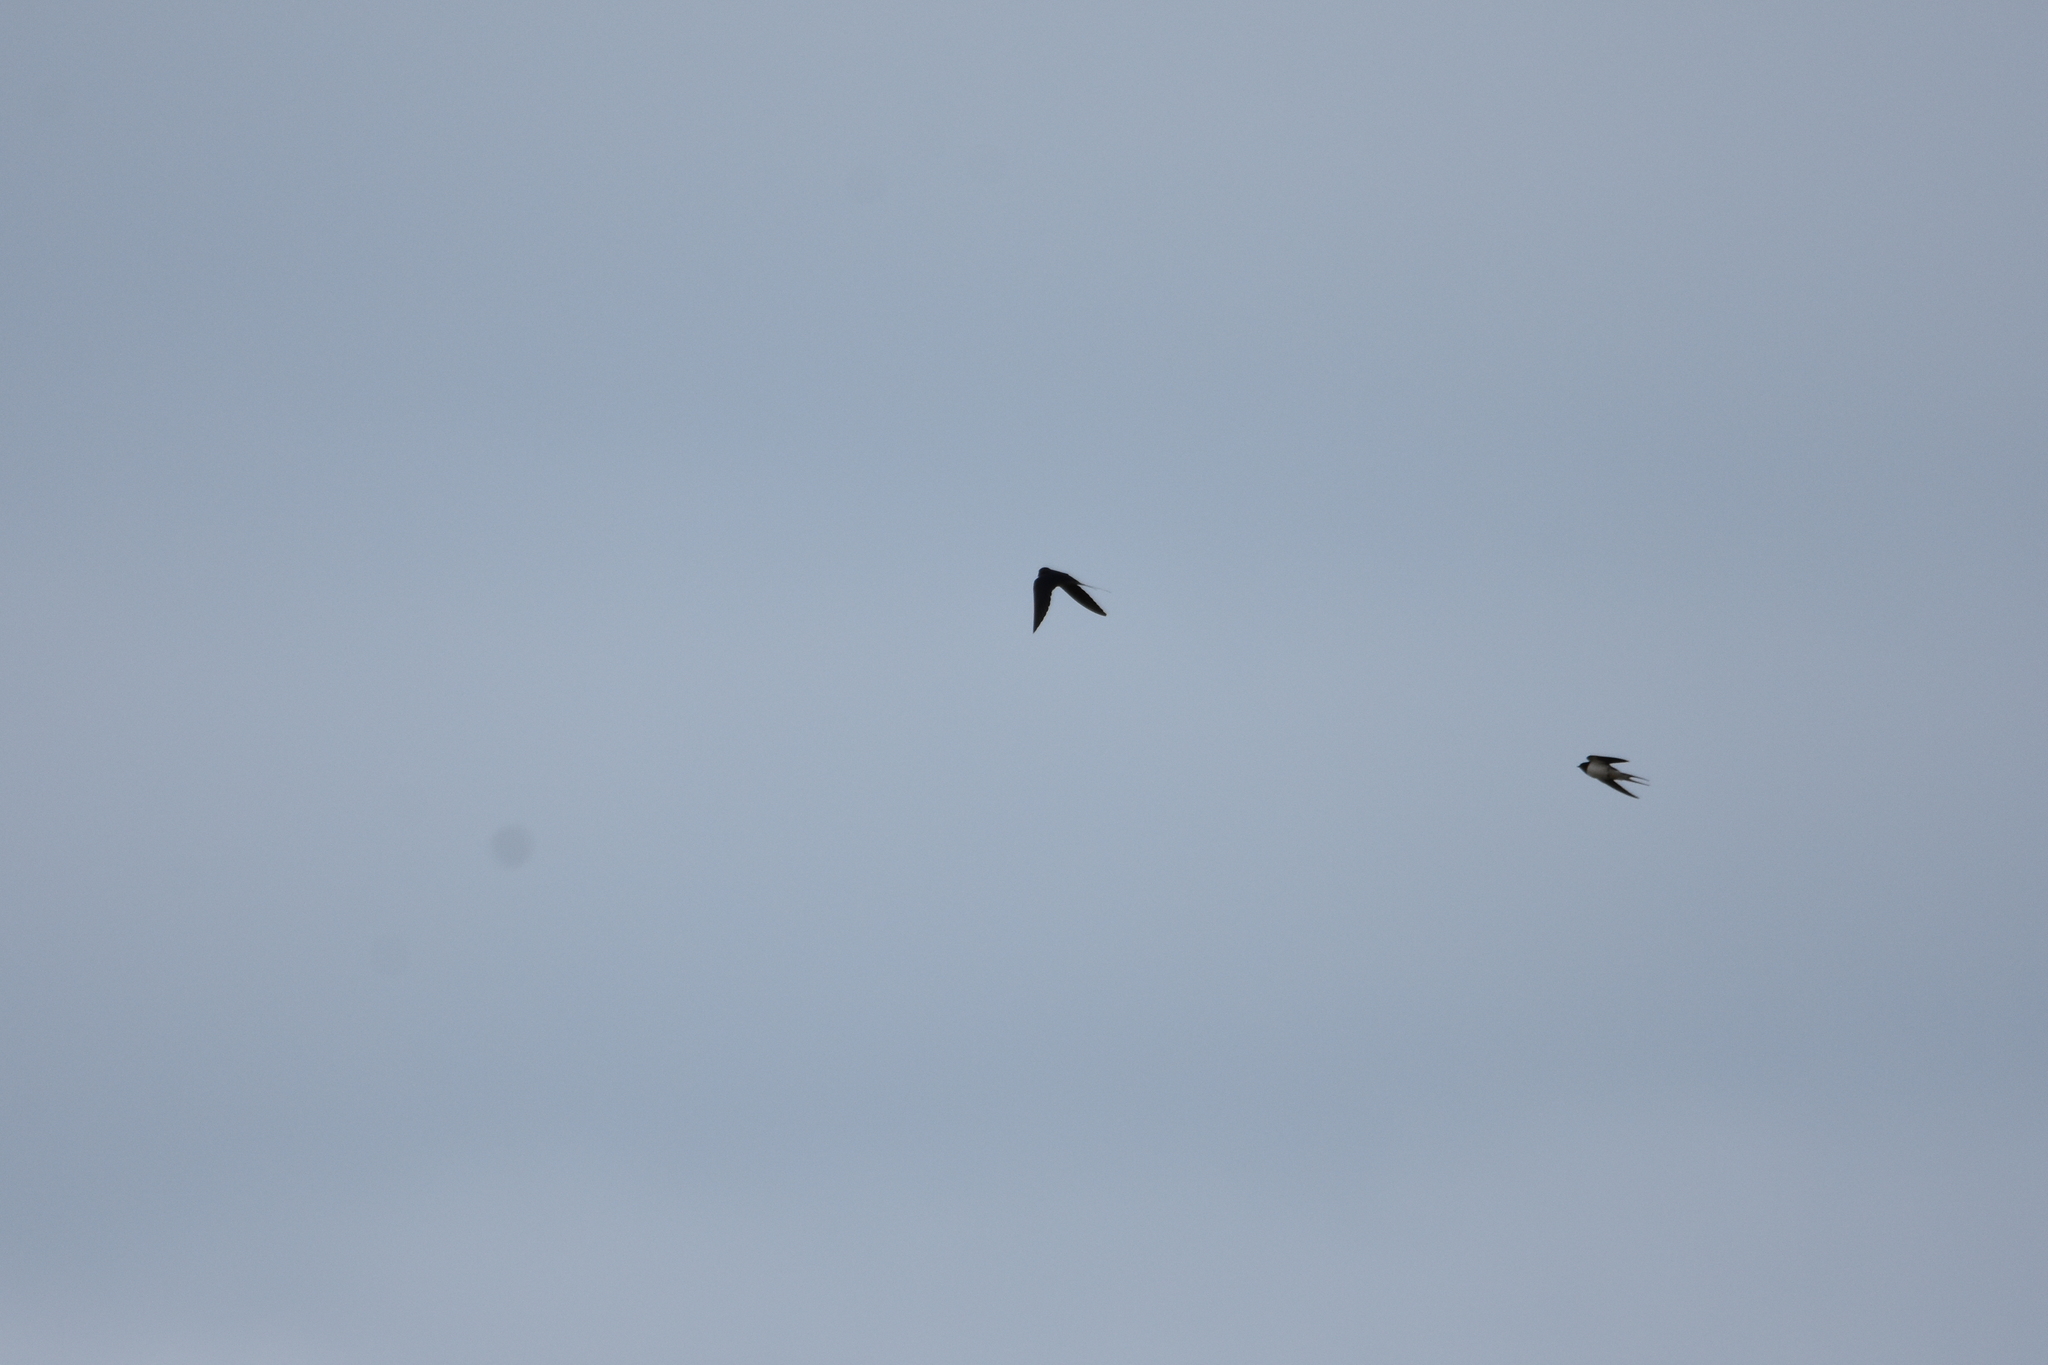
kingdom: Animalia
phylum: Chordata
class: Aves
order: Passeriformes
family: Hirundinidae
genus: Hirundo
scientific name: Hirundo rustica
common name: Barn swallow
